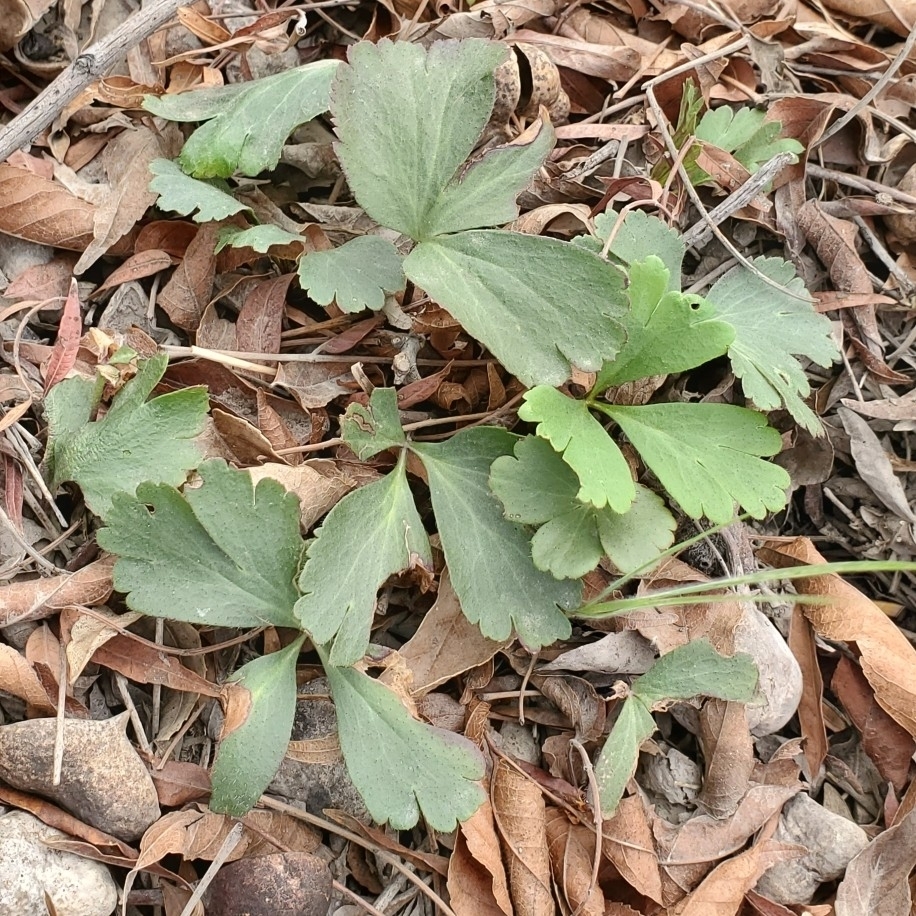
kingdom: Plantae
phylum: Tracheophyta
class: Magnoliopsida
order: Ranunculales
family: Ranunculaceae
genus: Anemone
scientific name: Anemone berlandieri
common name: Ten-petal anemone
